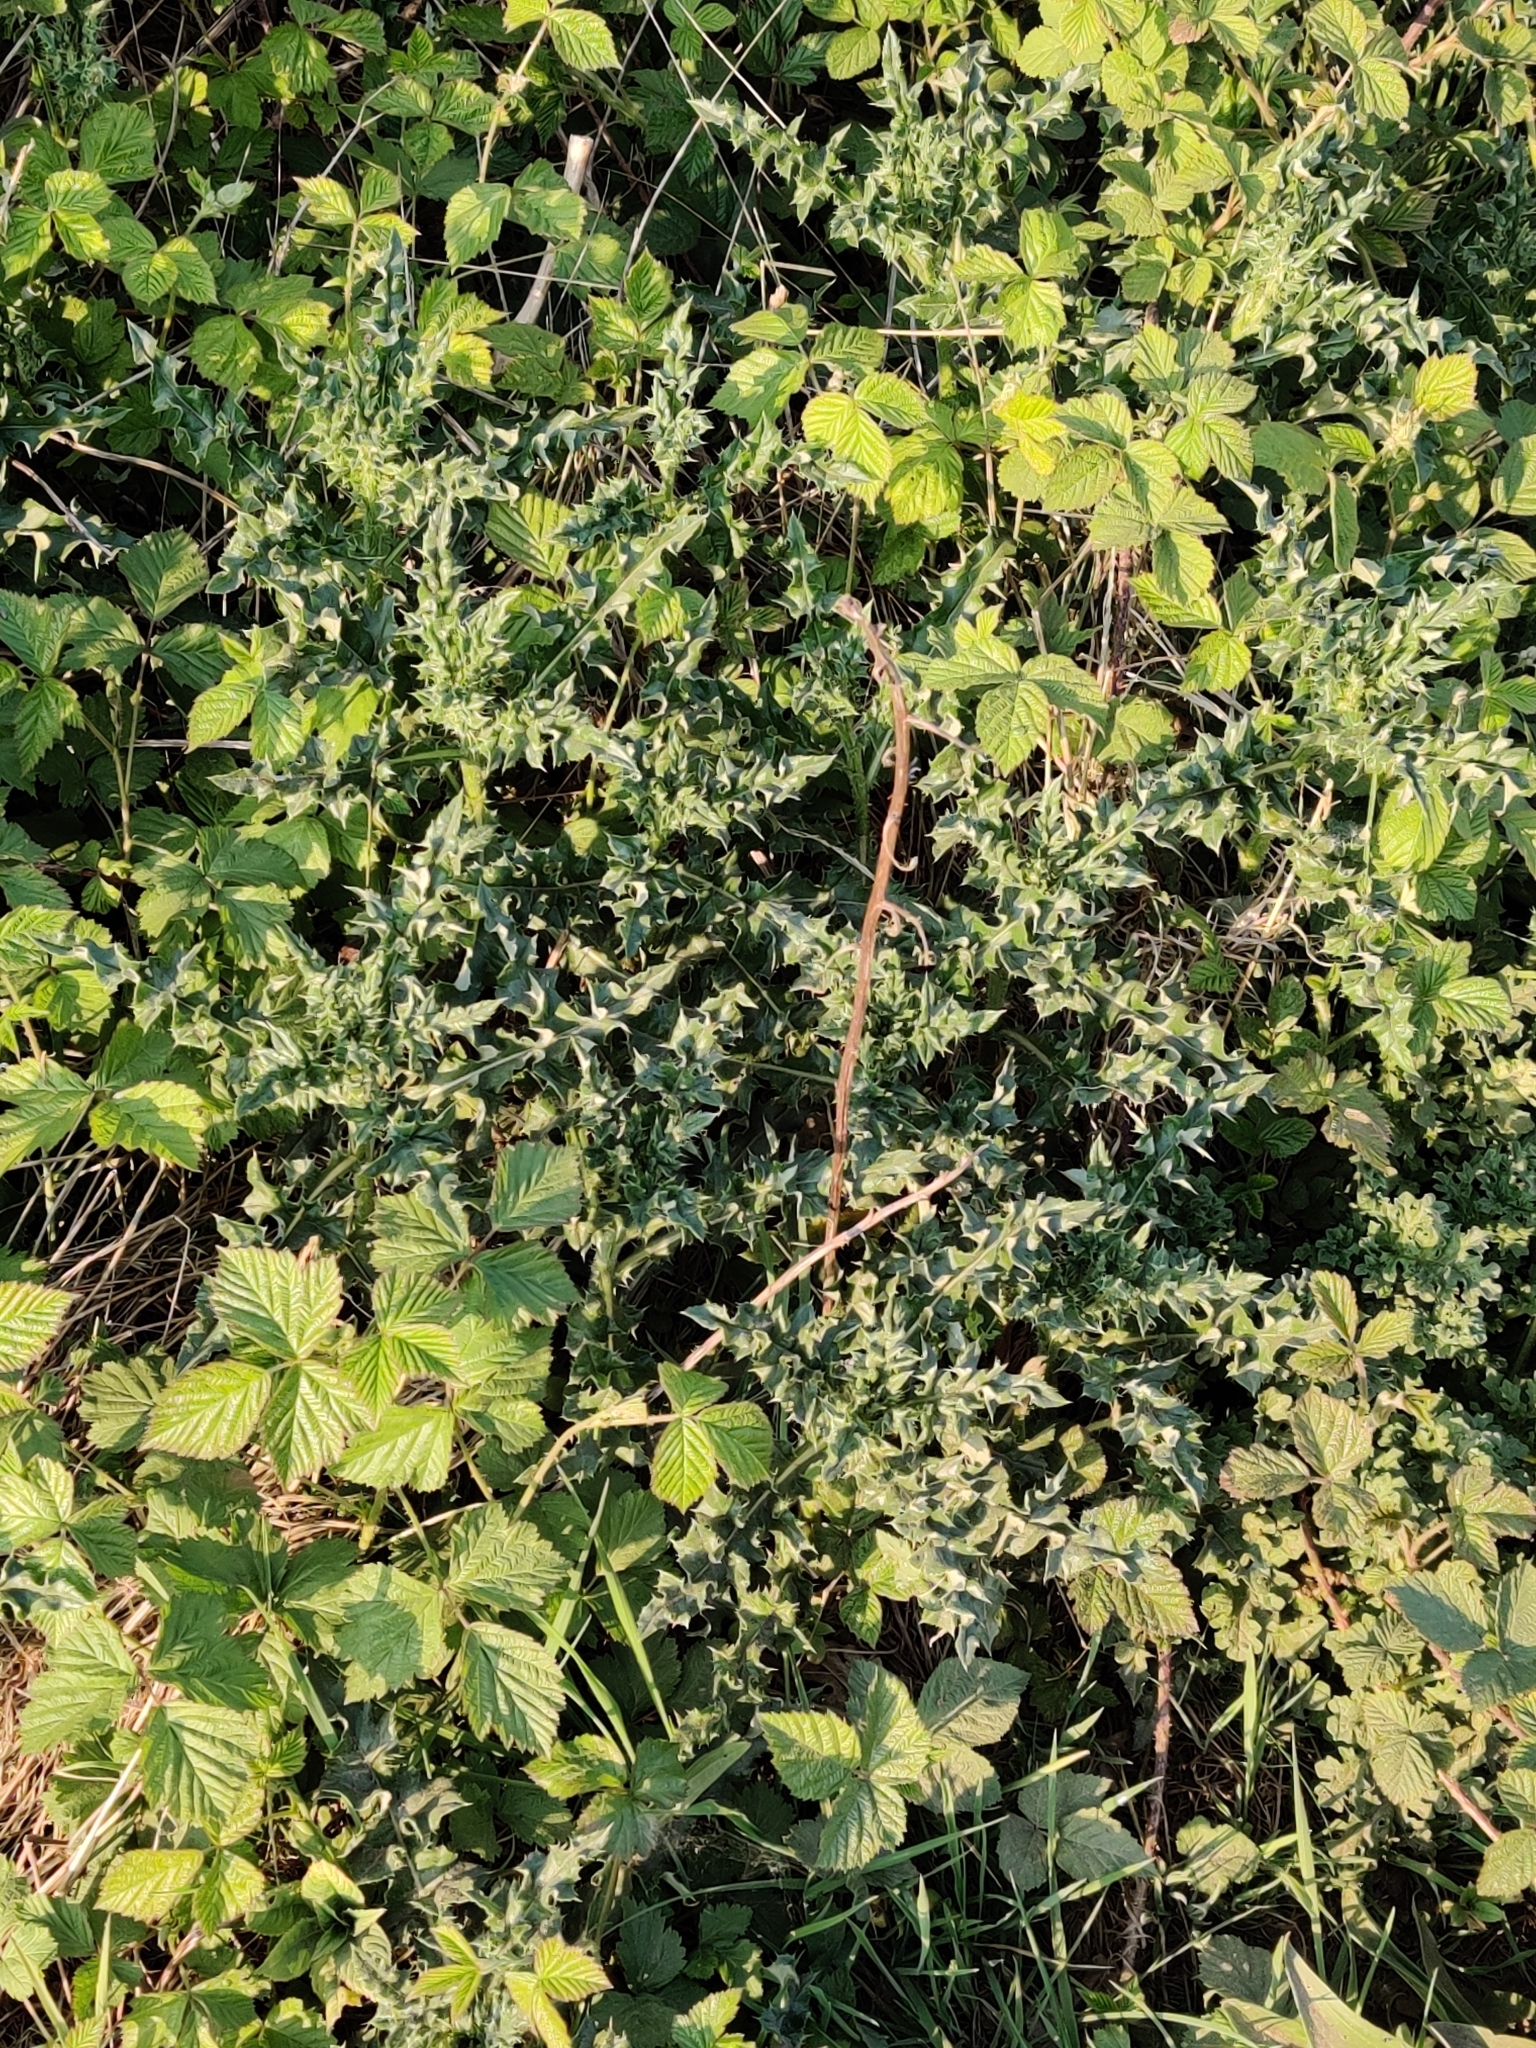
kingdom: Plantae
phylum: Tracheophyta
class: Magnoliopsida
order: Asterales
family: Asteraceae
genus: Cirsium
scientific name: Cirsium arvense
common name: Creeping thistle
